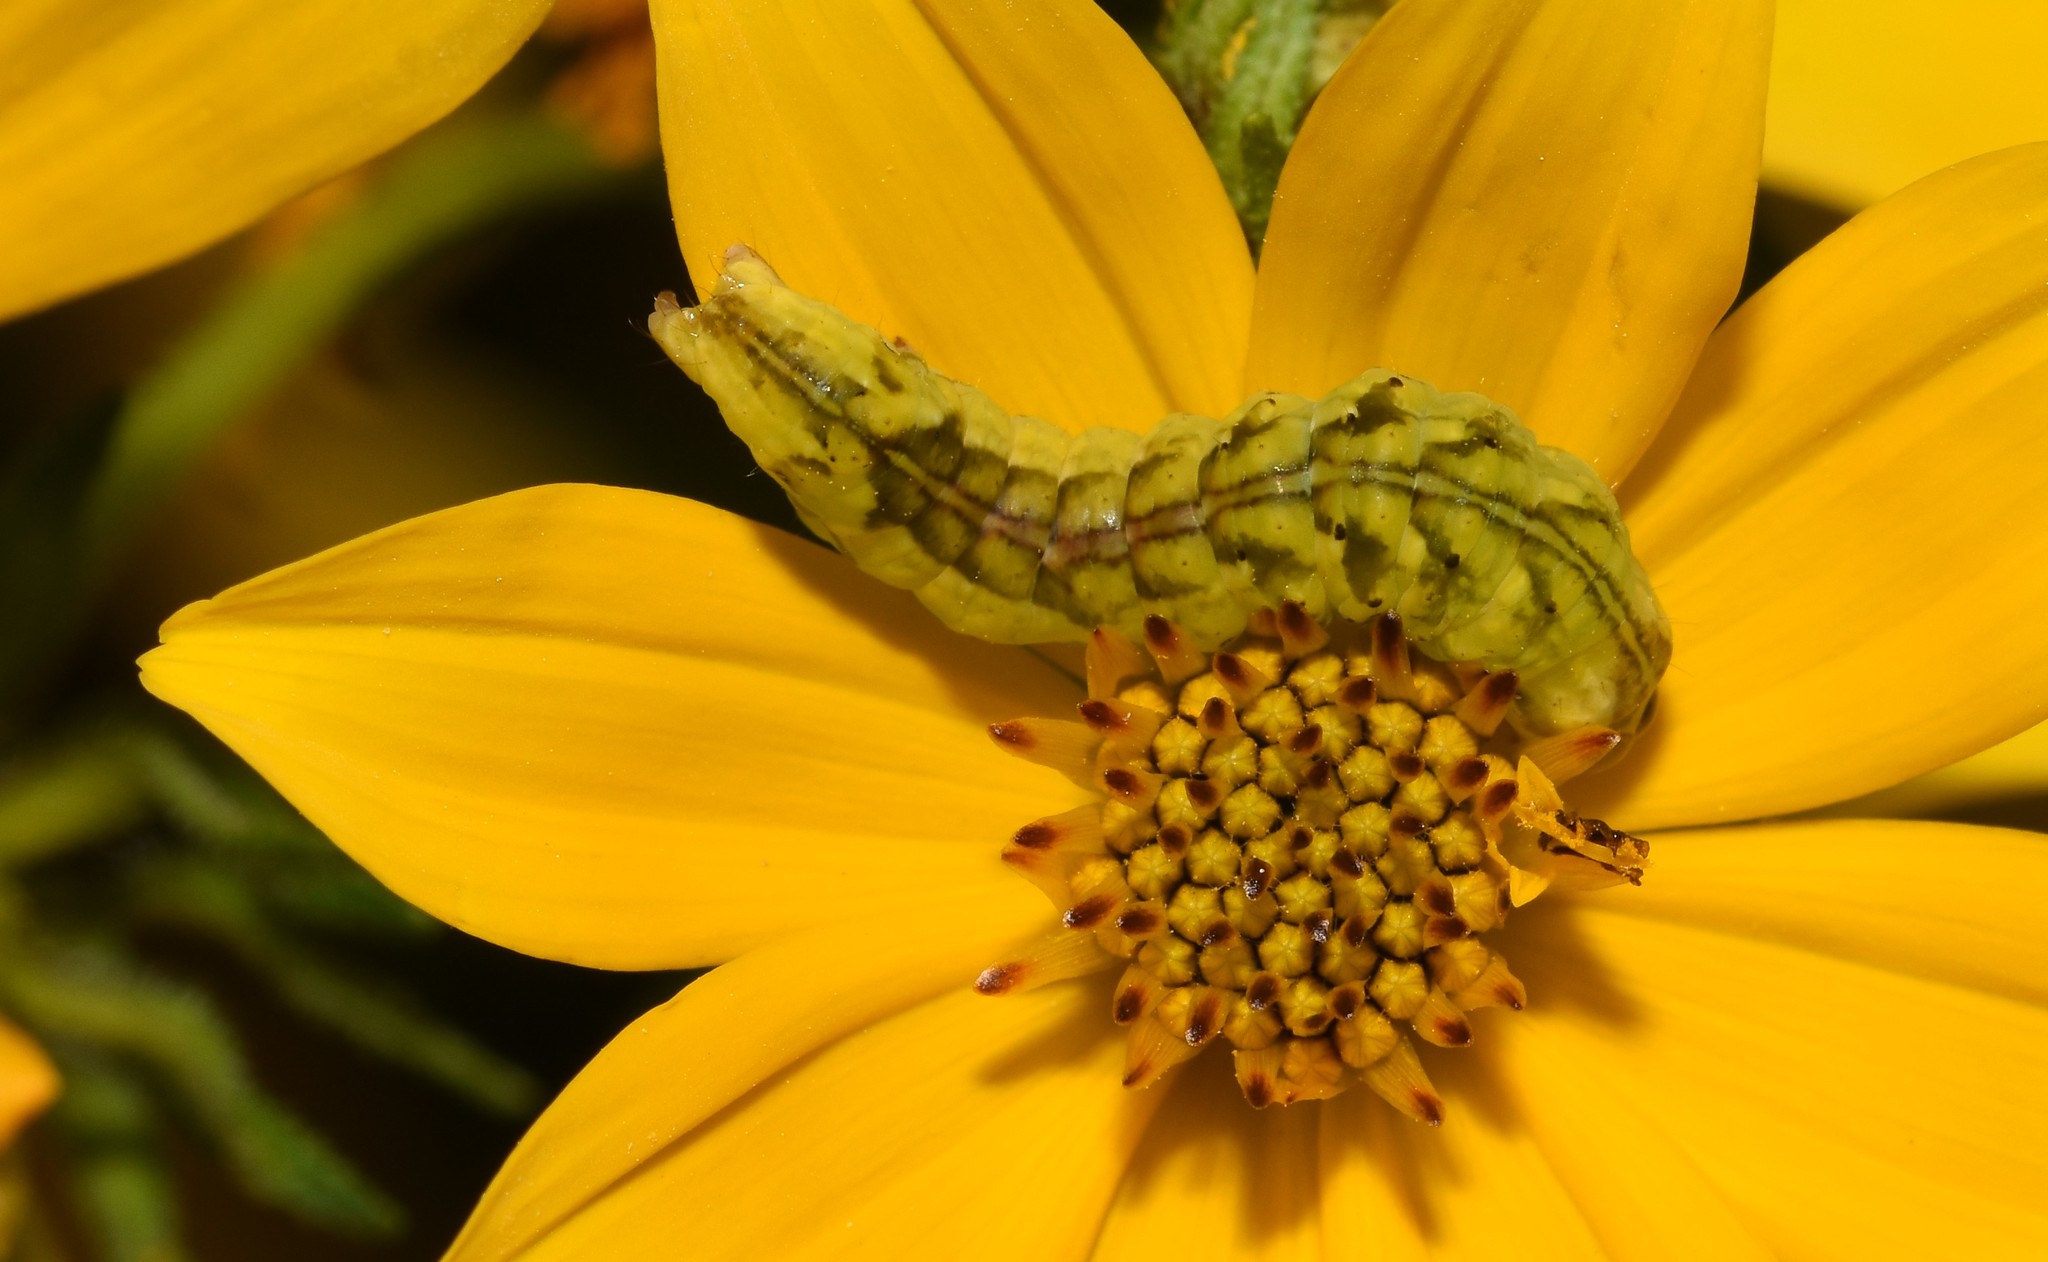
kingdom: Animalia
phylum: Arthropoda
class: Insecta
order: Lepidoptera
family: Noctuidae
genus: Cirrhophanus
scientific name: Cirrhophanus triangulifer
